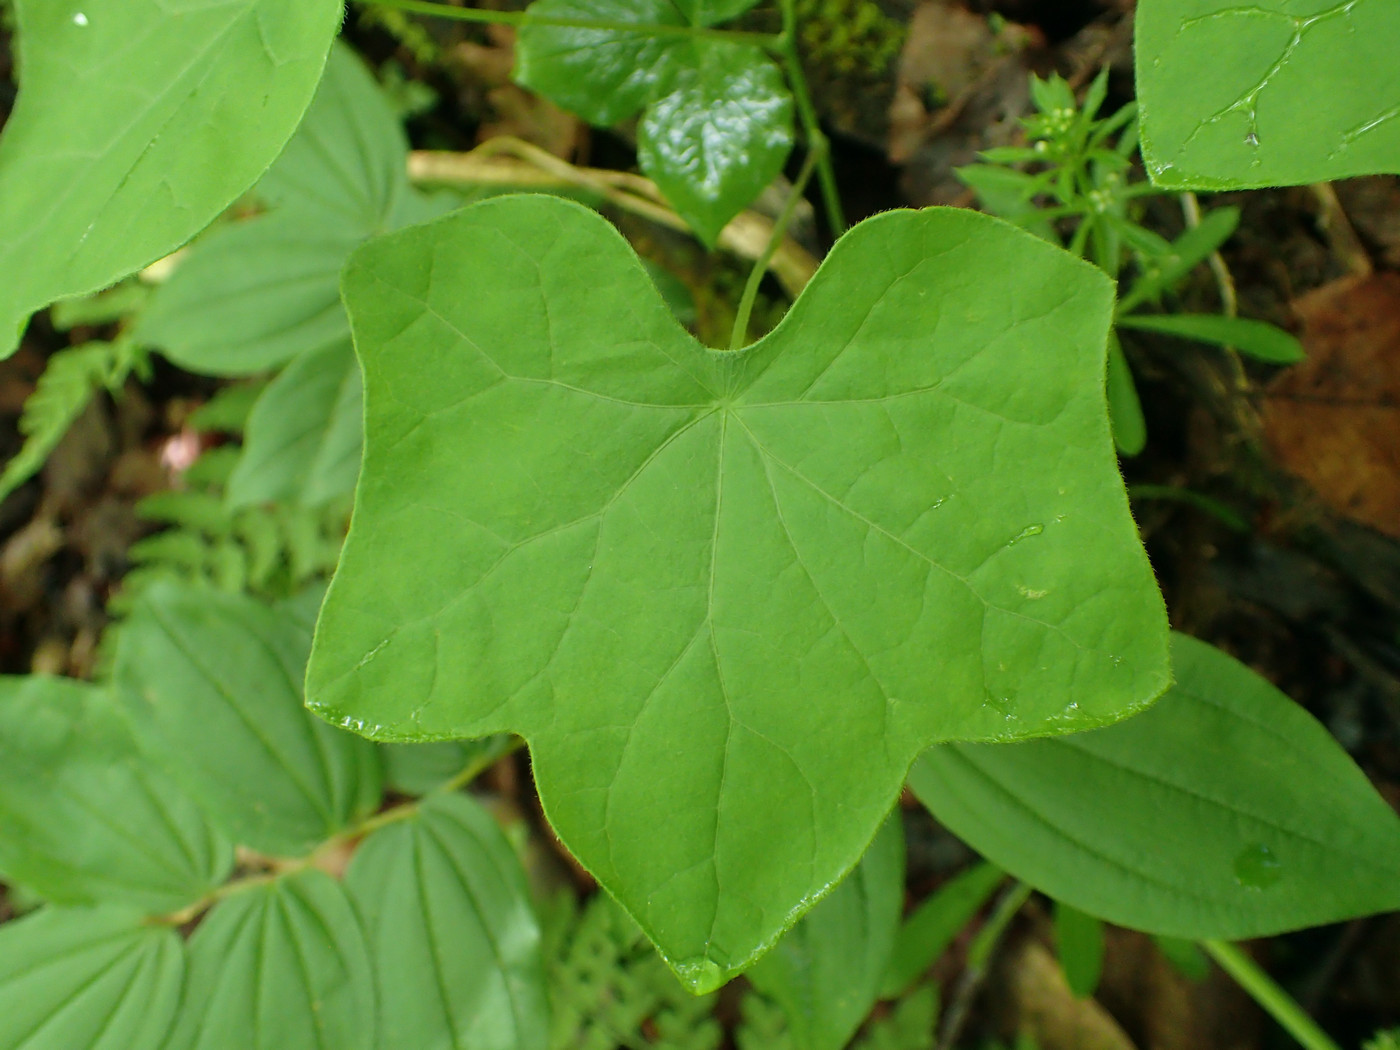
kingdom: Plantae
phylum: Tracheophyta
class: Magnoliopsida
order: Ranunculales
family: Menispermaceae
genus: Menispermum
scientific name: Menispermum canadense
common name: Moonseed
